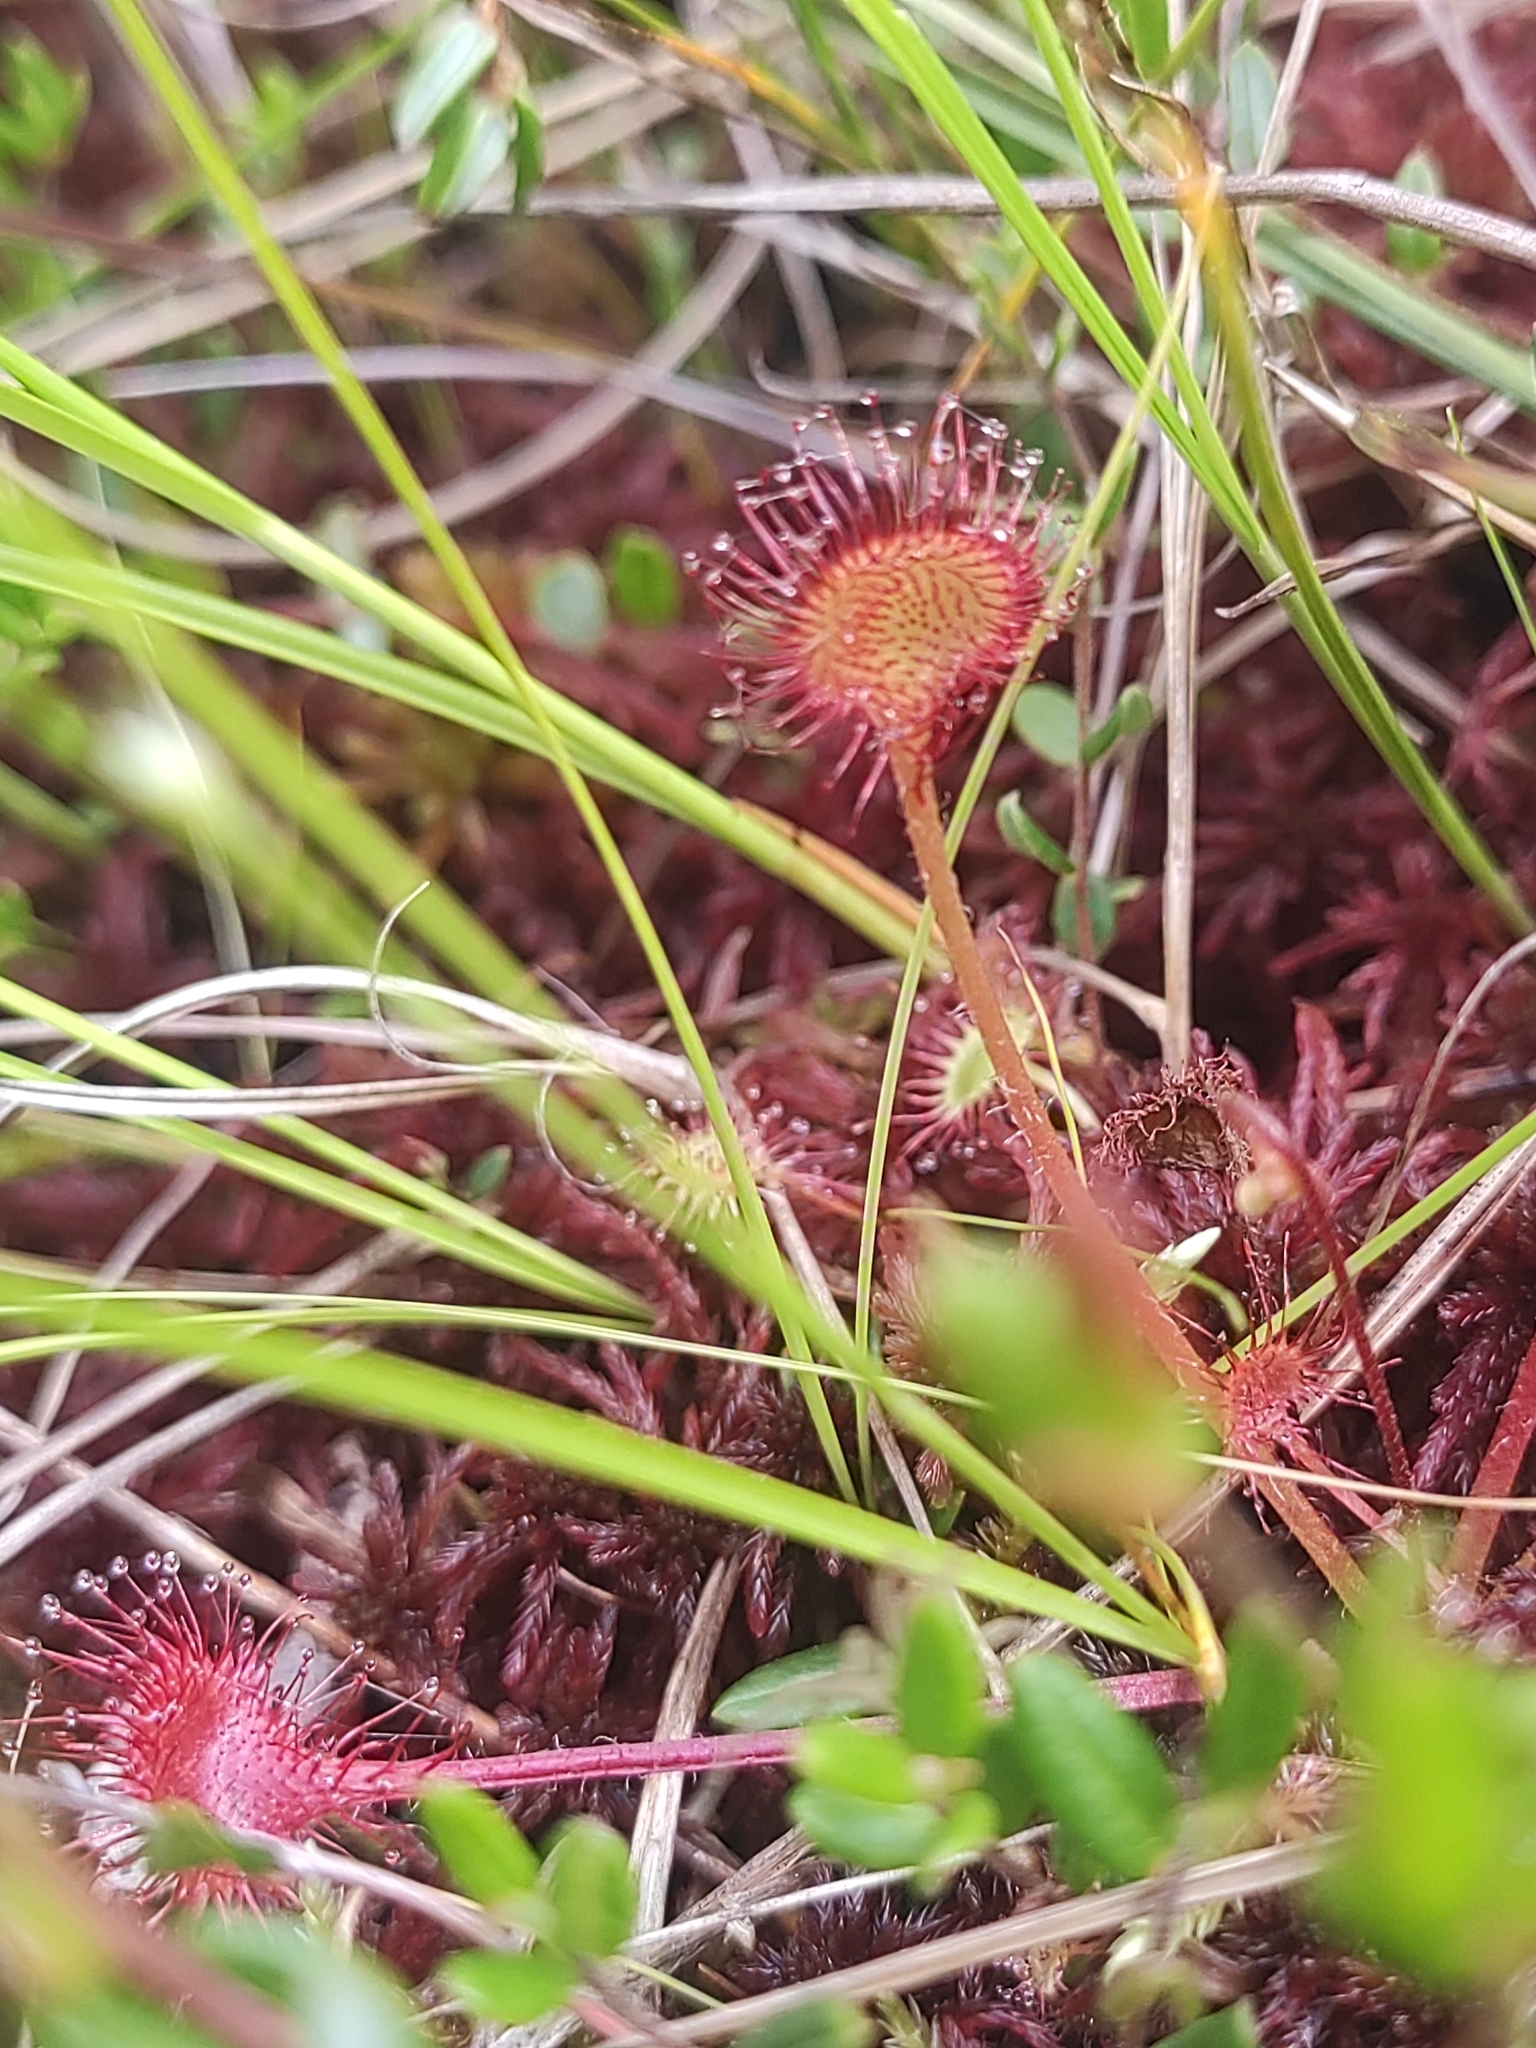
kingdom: Plantae
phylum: Tracheophyta
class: Magnoliopsida
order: Caryophyllales
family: Droseraceae
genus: Drosera
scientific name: Drosera rotundifolia
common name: Round-leaved sundew
